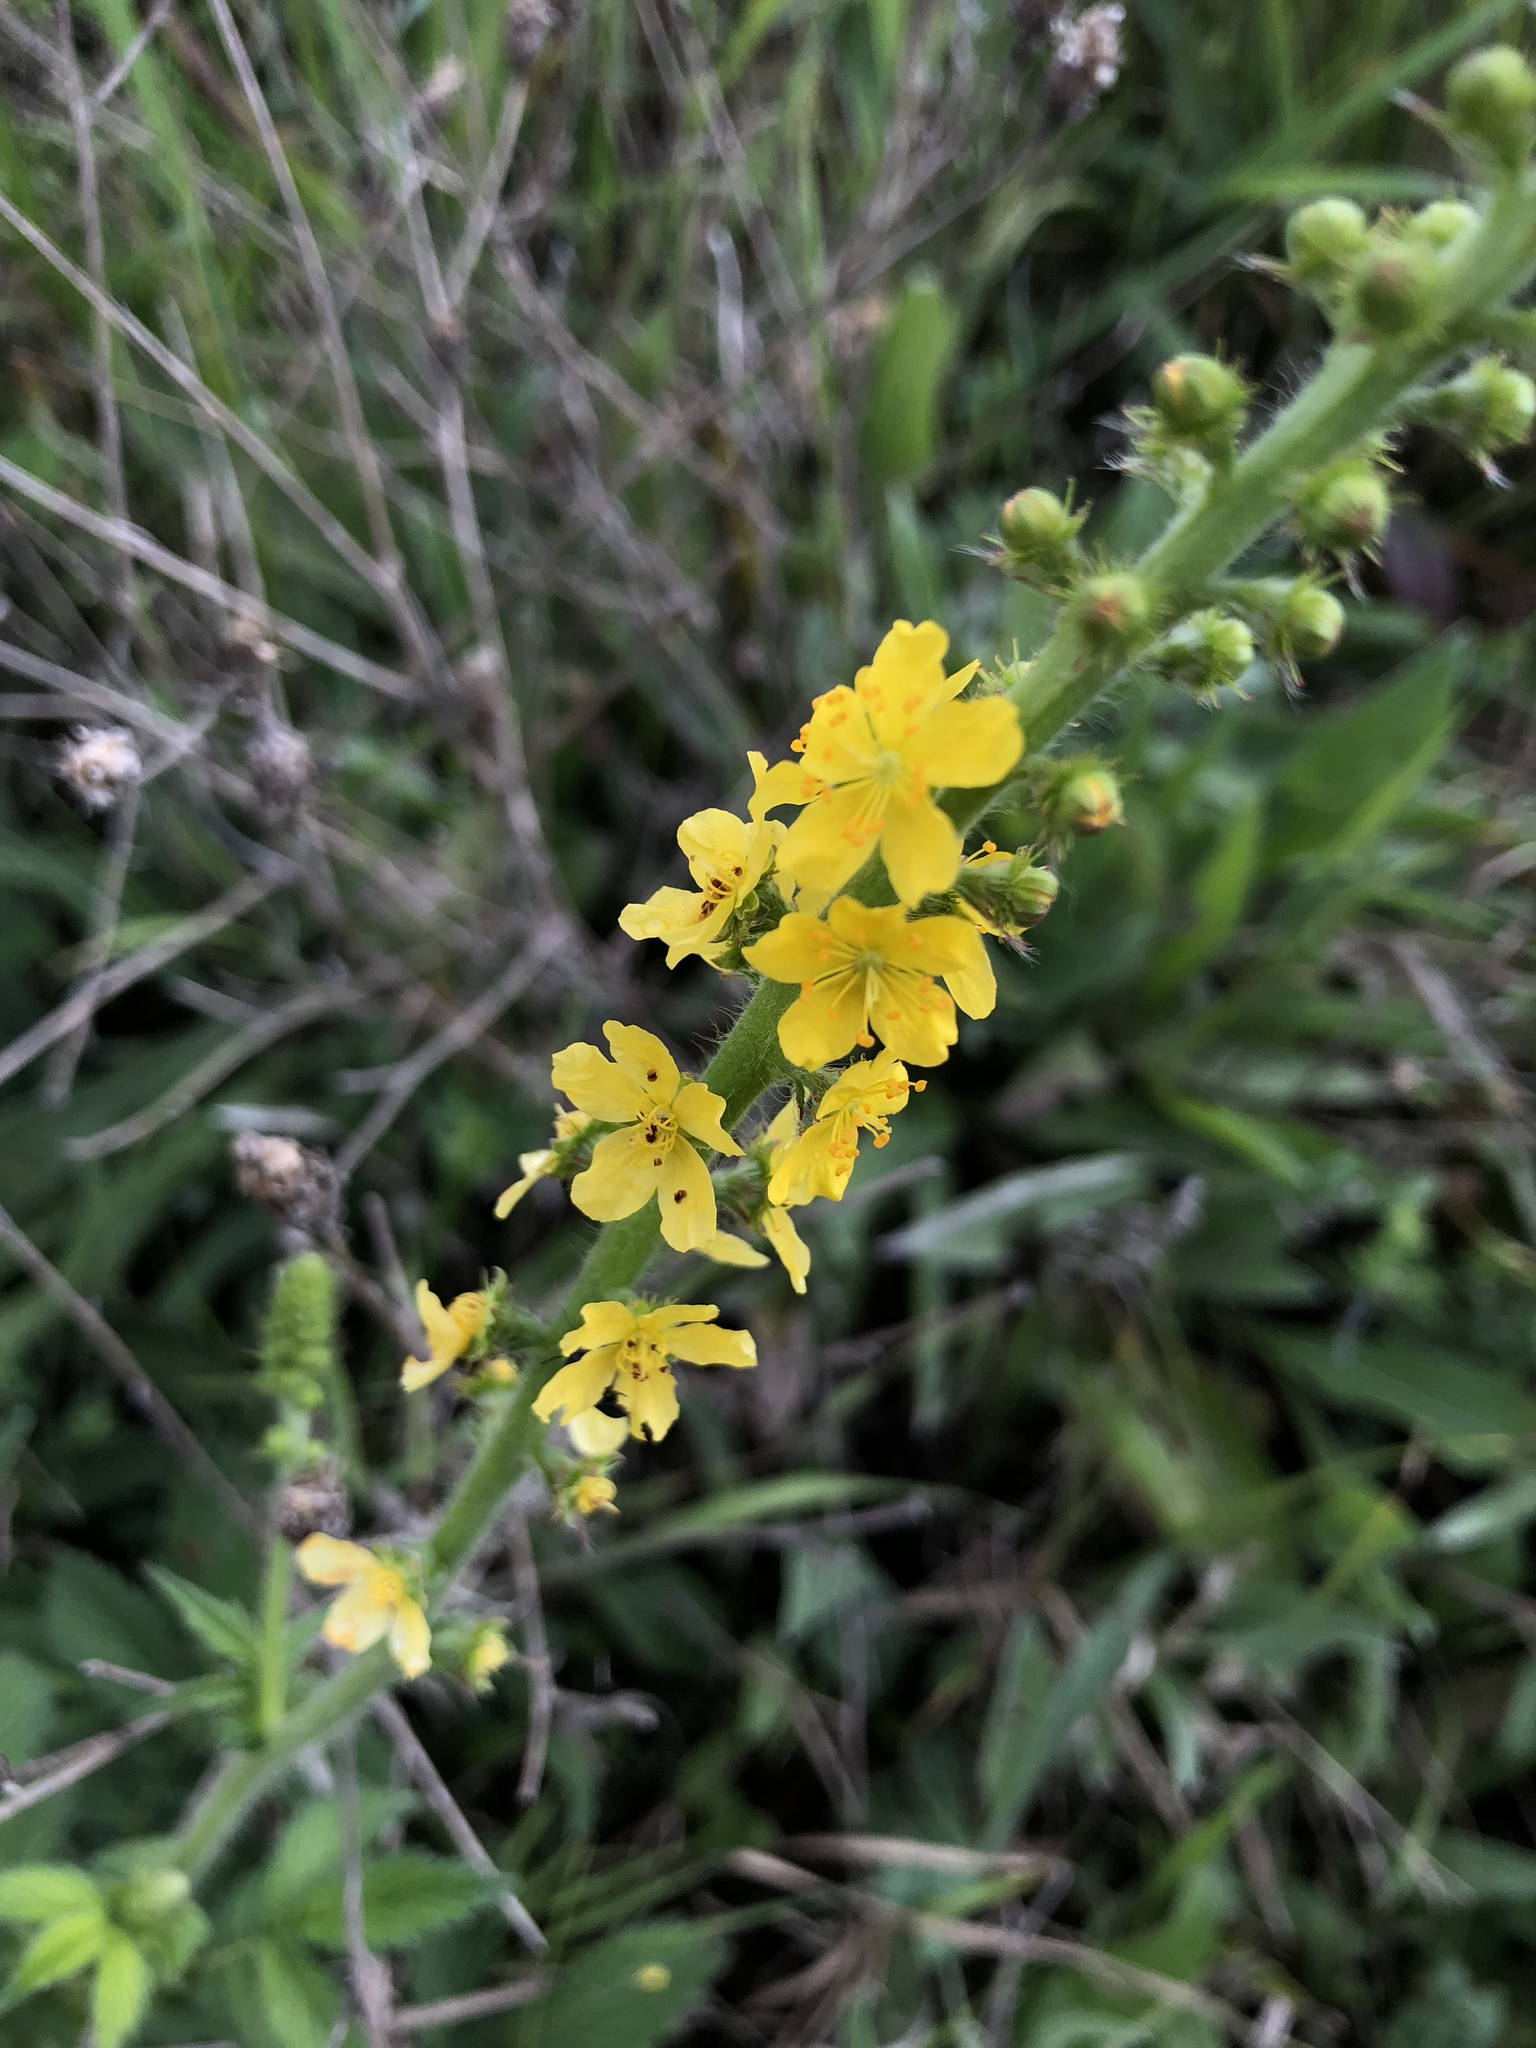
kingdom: Plantae
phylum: Tracheophyta
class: Magnoliopsida
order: Rosales
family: Rosaceae
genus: Agrimonia
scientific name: Agrimonia eupatoria
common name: Agrimony
